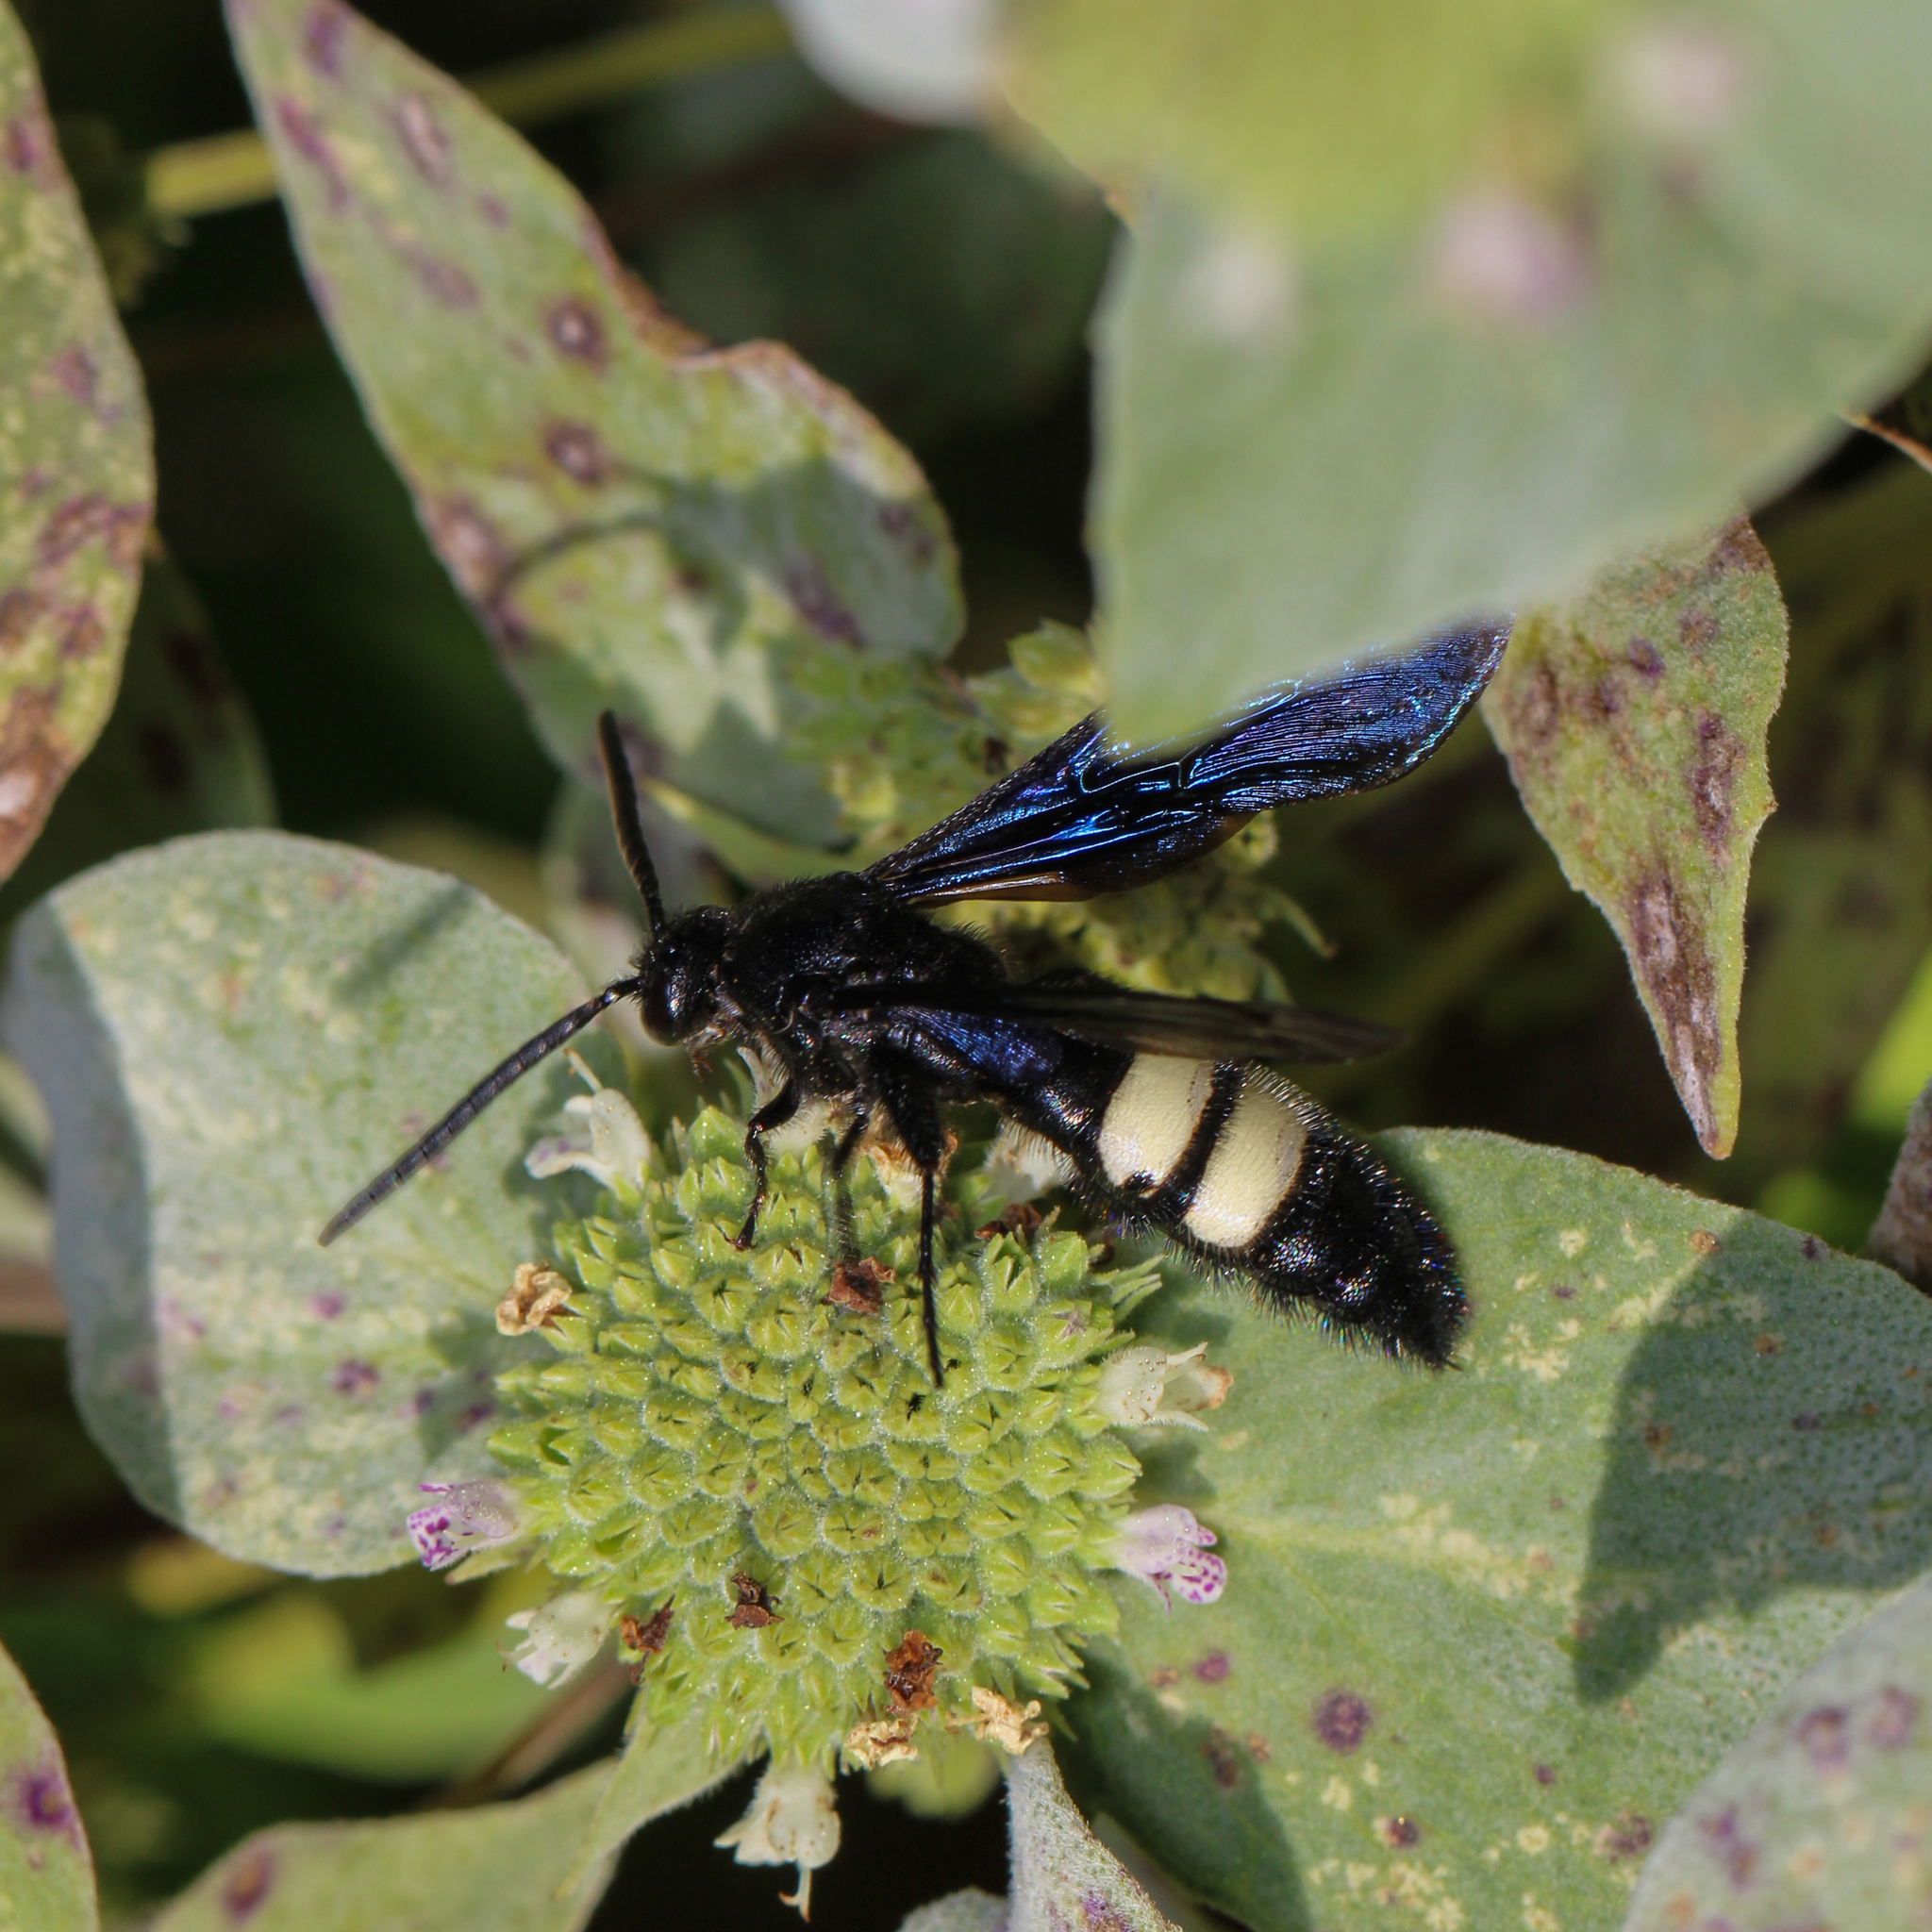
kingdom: Animalia
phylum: Arthropoda
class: Insecta
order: Hymenoptera
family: Scoliidae
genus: Scolia
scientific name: Scolia bicincta
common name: Double-banded scoliid wasp
